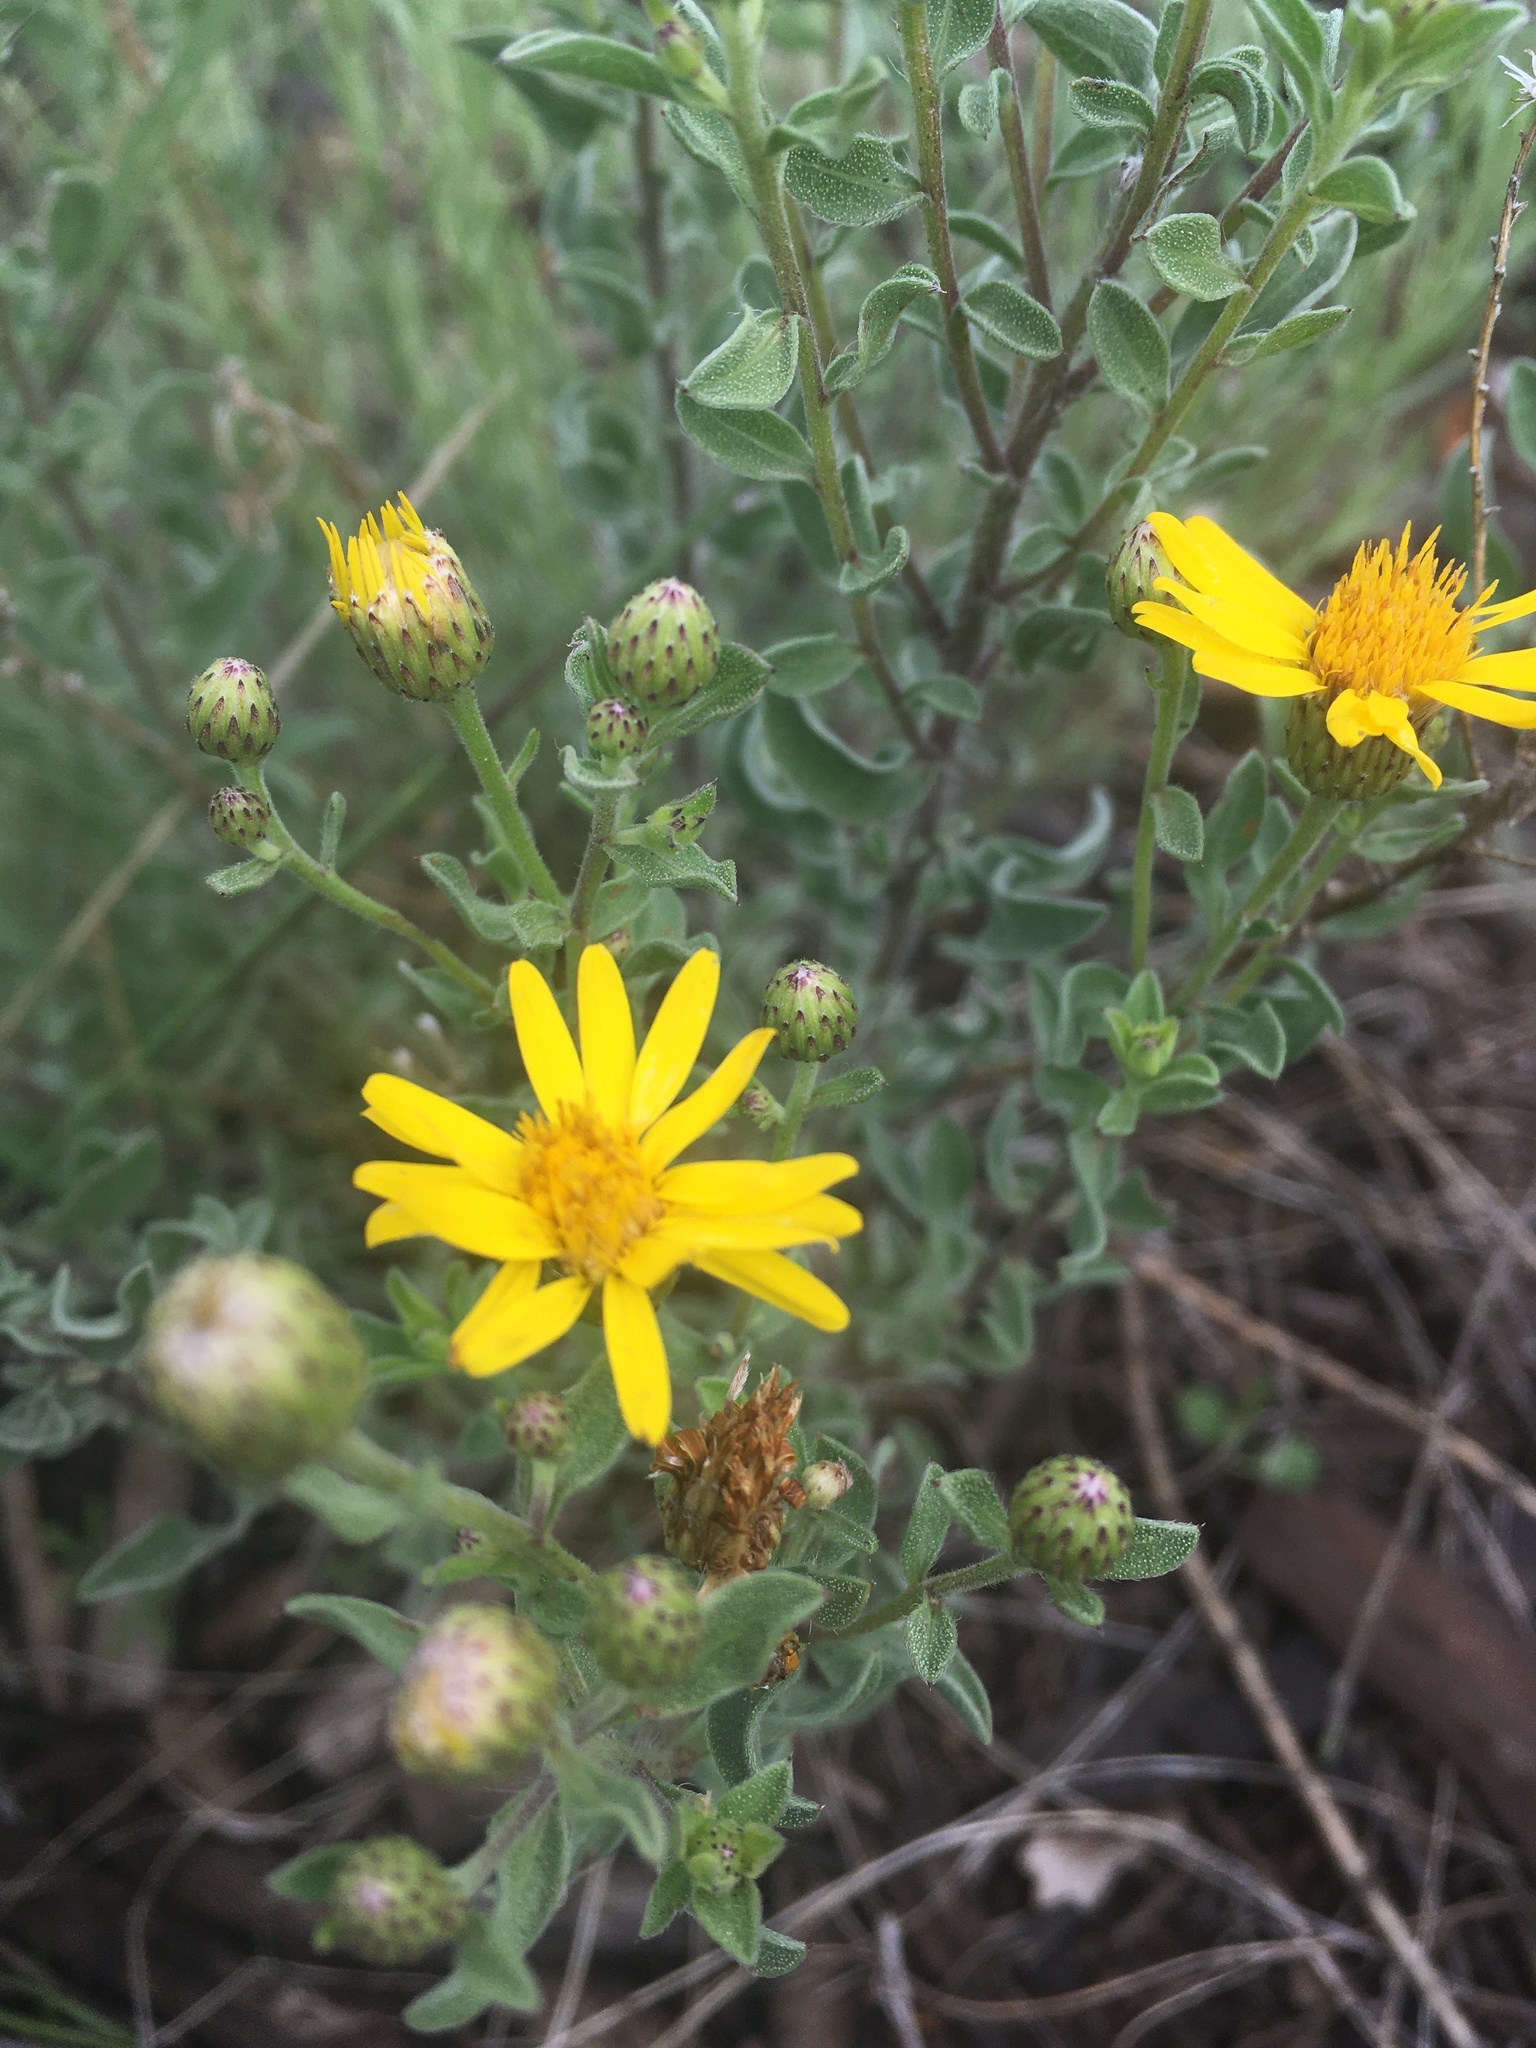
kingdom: Plantae
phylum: Tracheophyta
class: Magnoliopsida
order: Asterales
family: Asteraceae
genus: Heterotheca
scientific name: Heterotheca sierrablancensis
